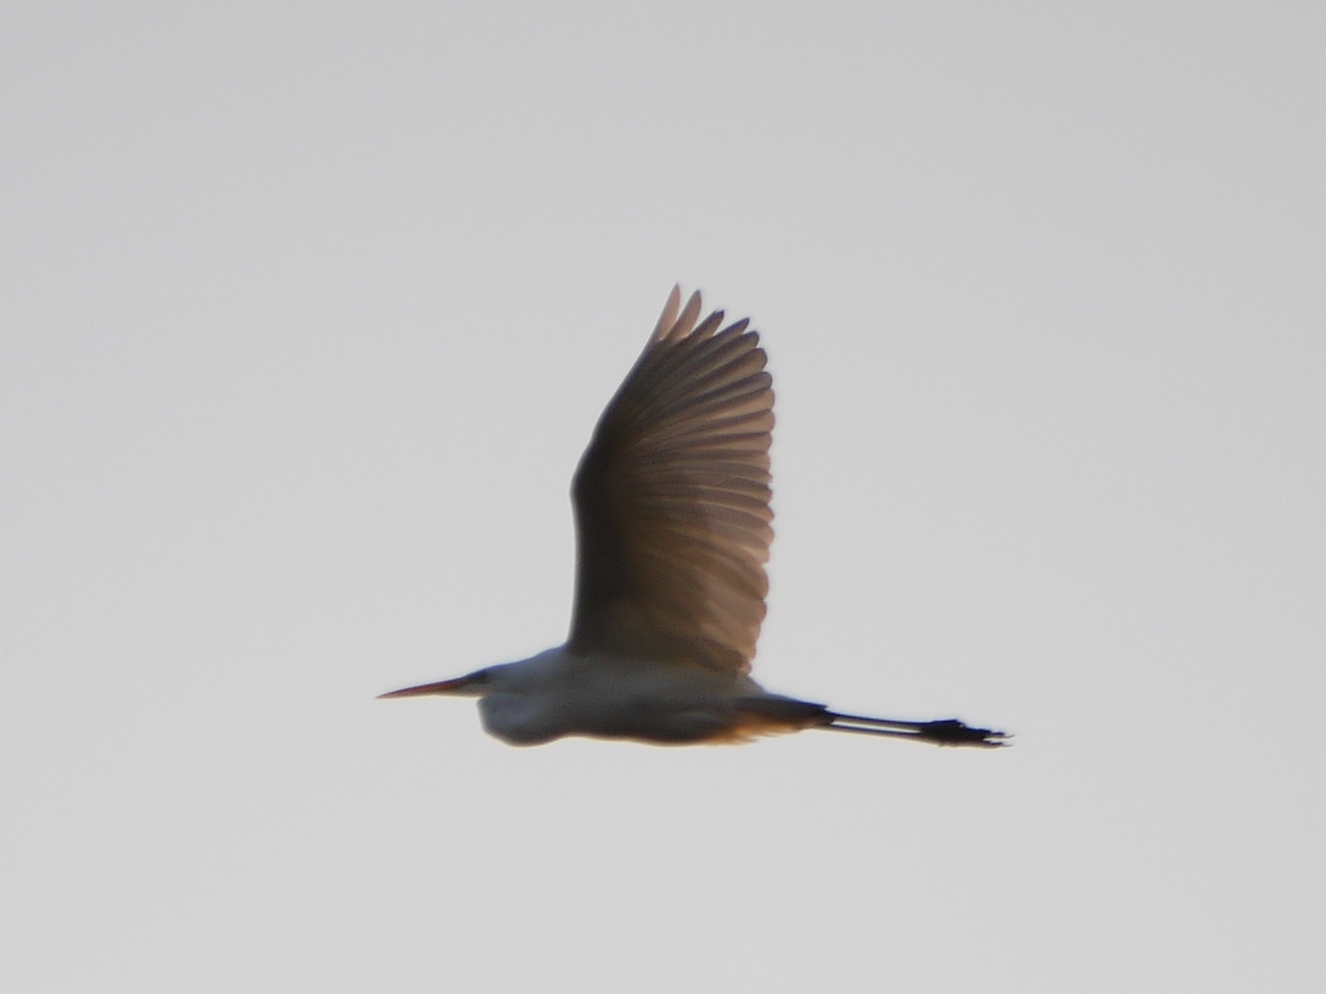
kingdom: Animalia
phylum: Chordata
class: Aves
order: Pelecaniformes
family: Ardeidae
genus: Ardea
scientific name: Ardea alba
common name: Great egret
